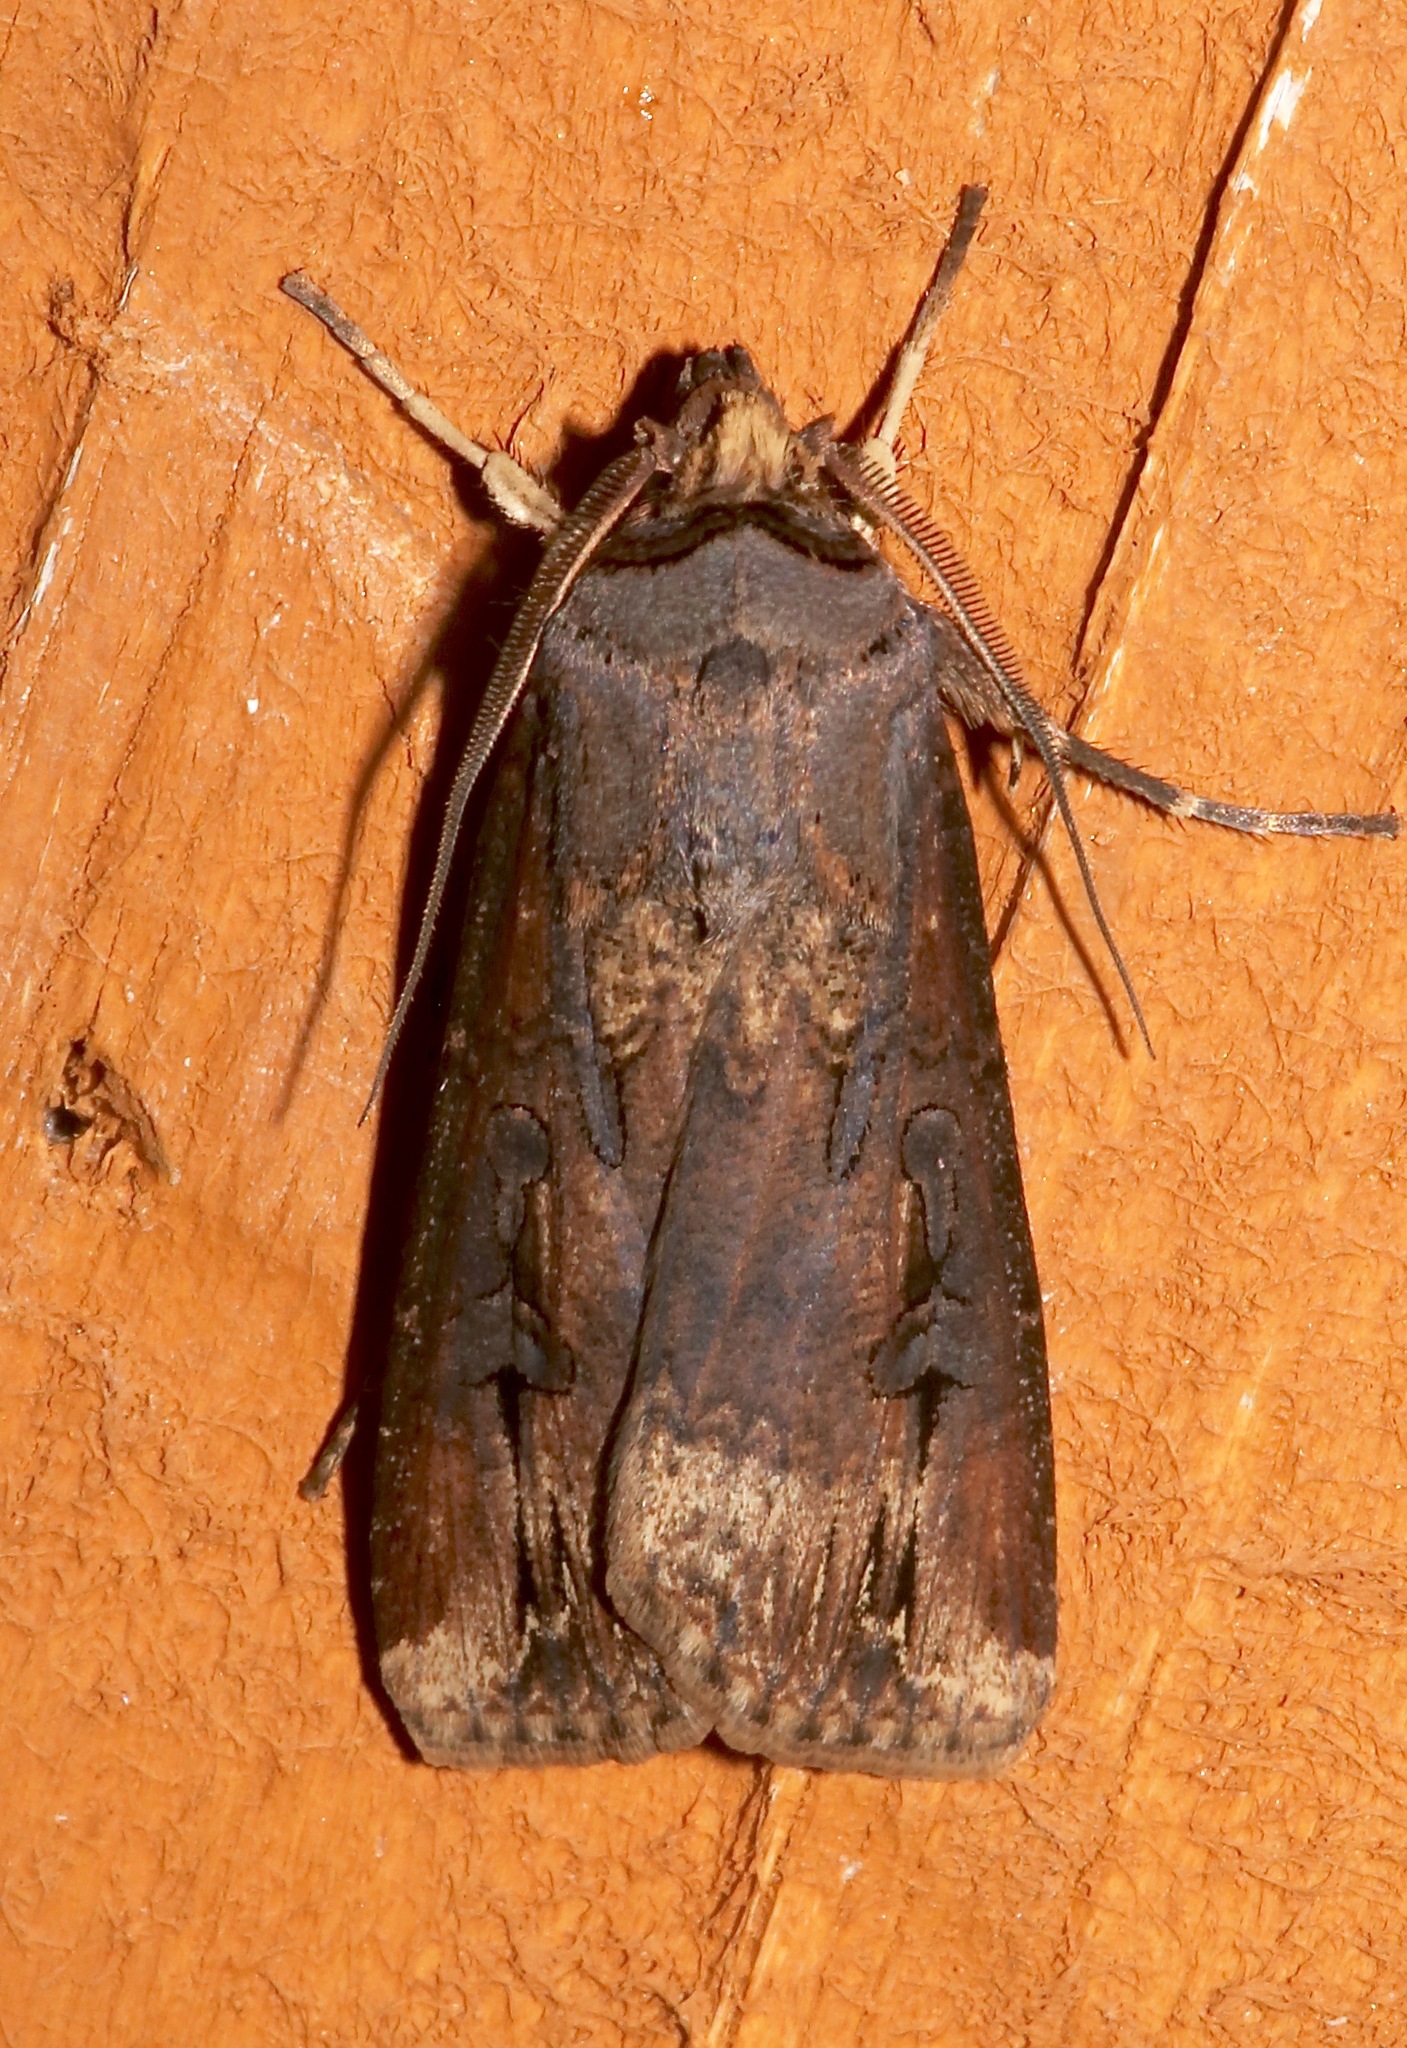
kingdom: Animalia
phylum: Arthropoda
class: Insecta
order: Lepidoptera
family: Noctuidae
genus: Agrotis
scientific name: Agrotis ipsilon
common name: Dark sword-grass
